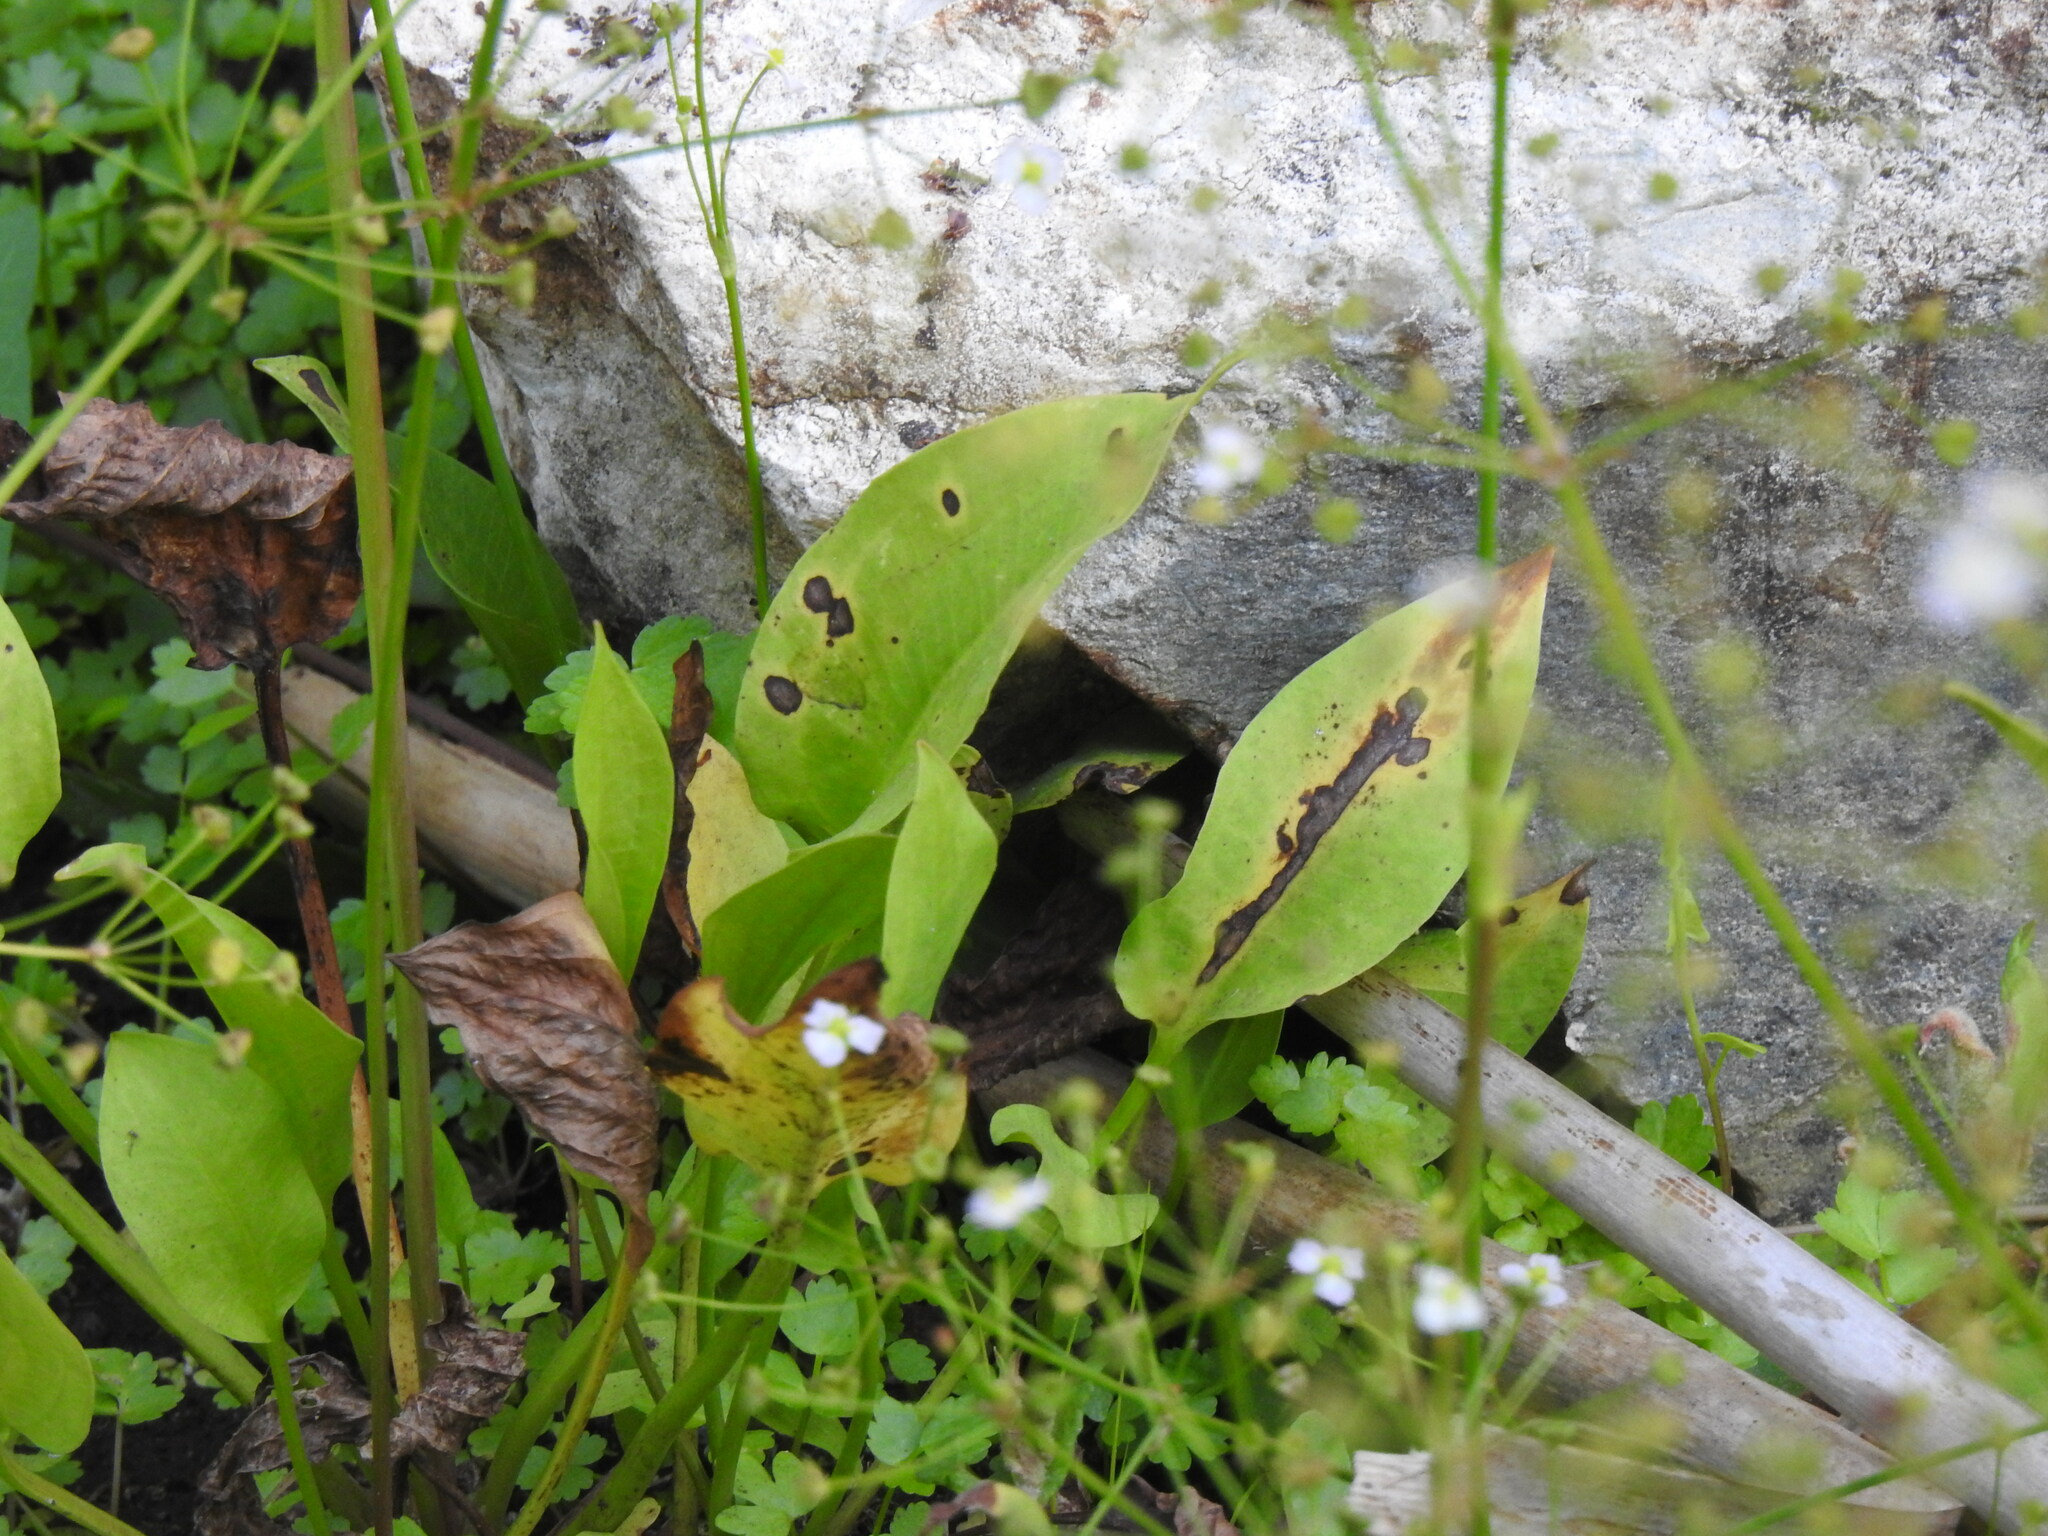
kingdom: Plantae
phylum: Tracheophyta
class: Liliopsida
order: Alismatales
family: Alismataceae
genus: Alisma
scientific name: Alisma plantago-aquatica
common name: Water-plantain
